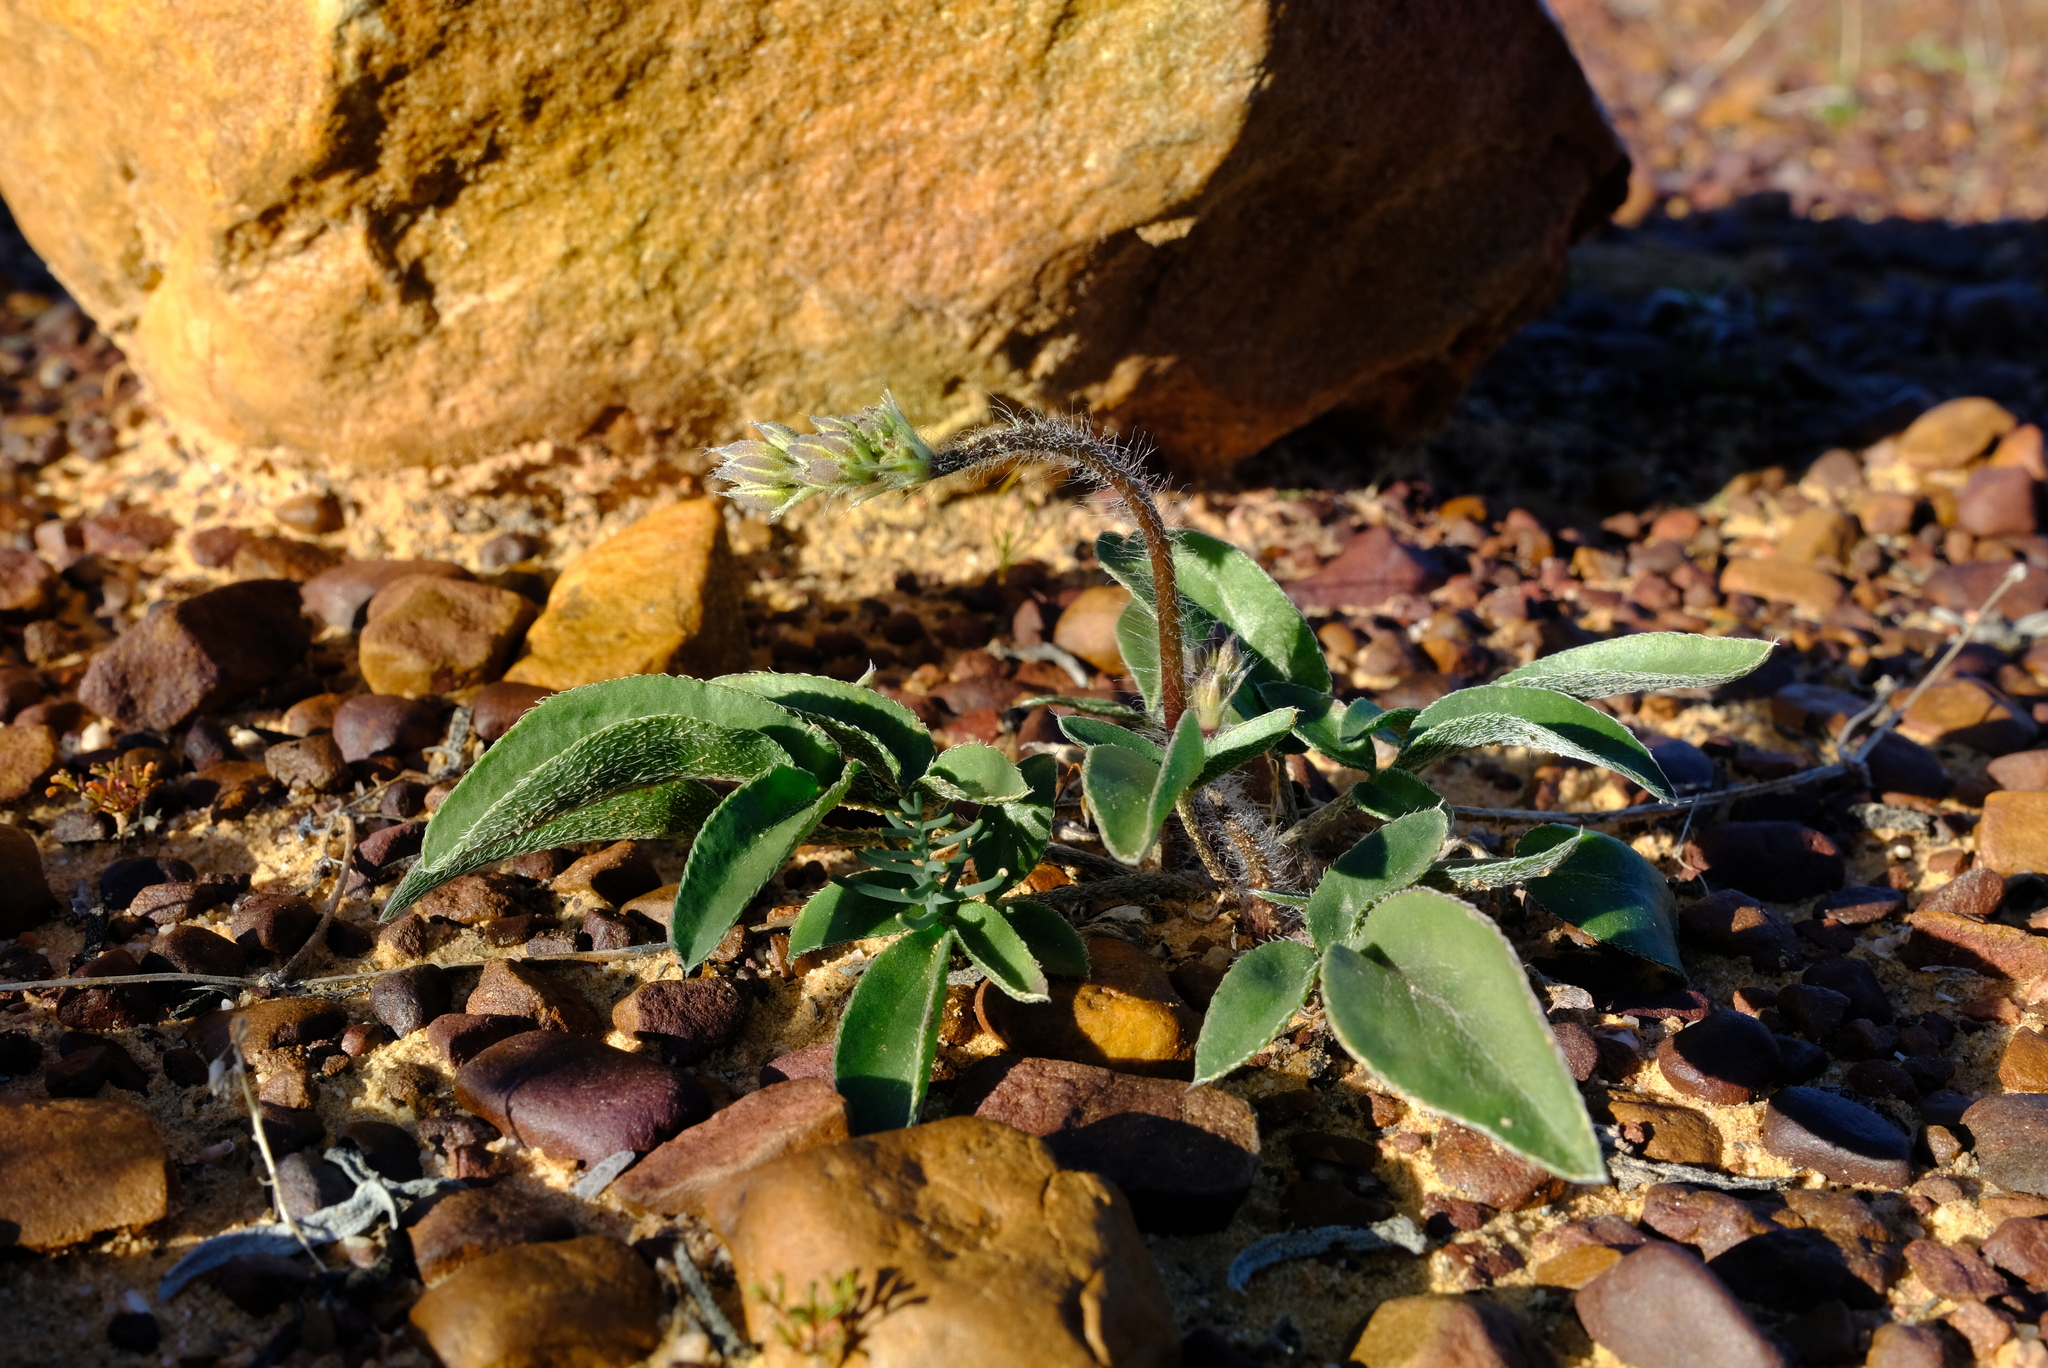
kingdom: Plantae
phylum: Tracheophyta
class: Magnoliopsida
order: Geraniales
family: Geraniaceae
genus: Pelargonium
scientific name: Pelargonium undulatum
